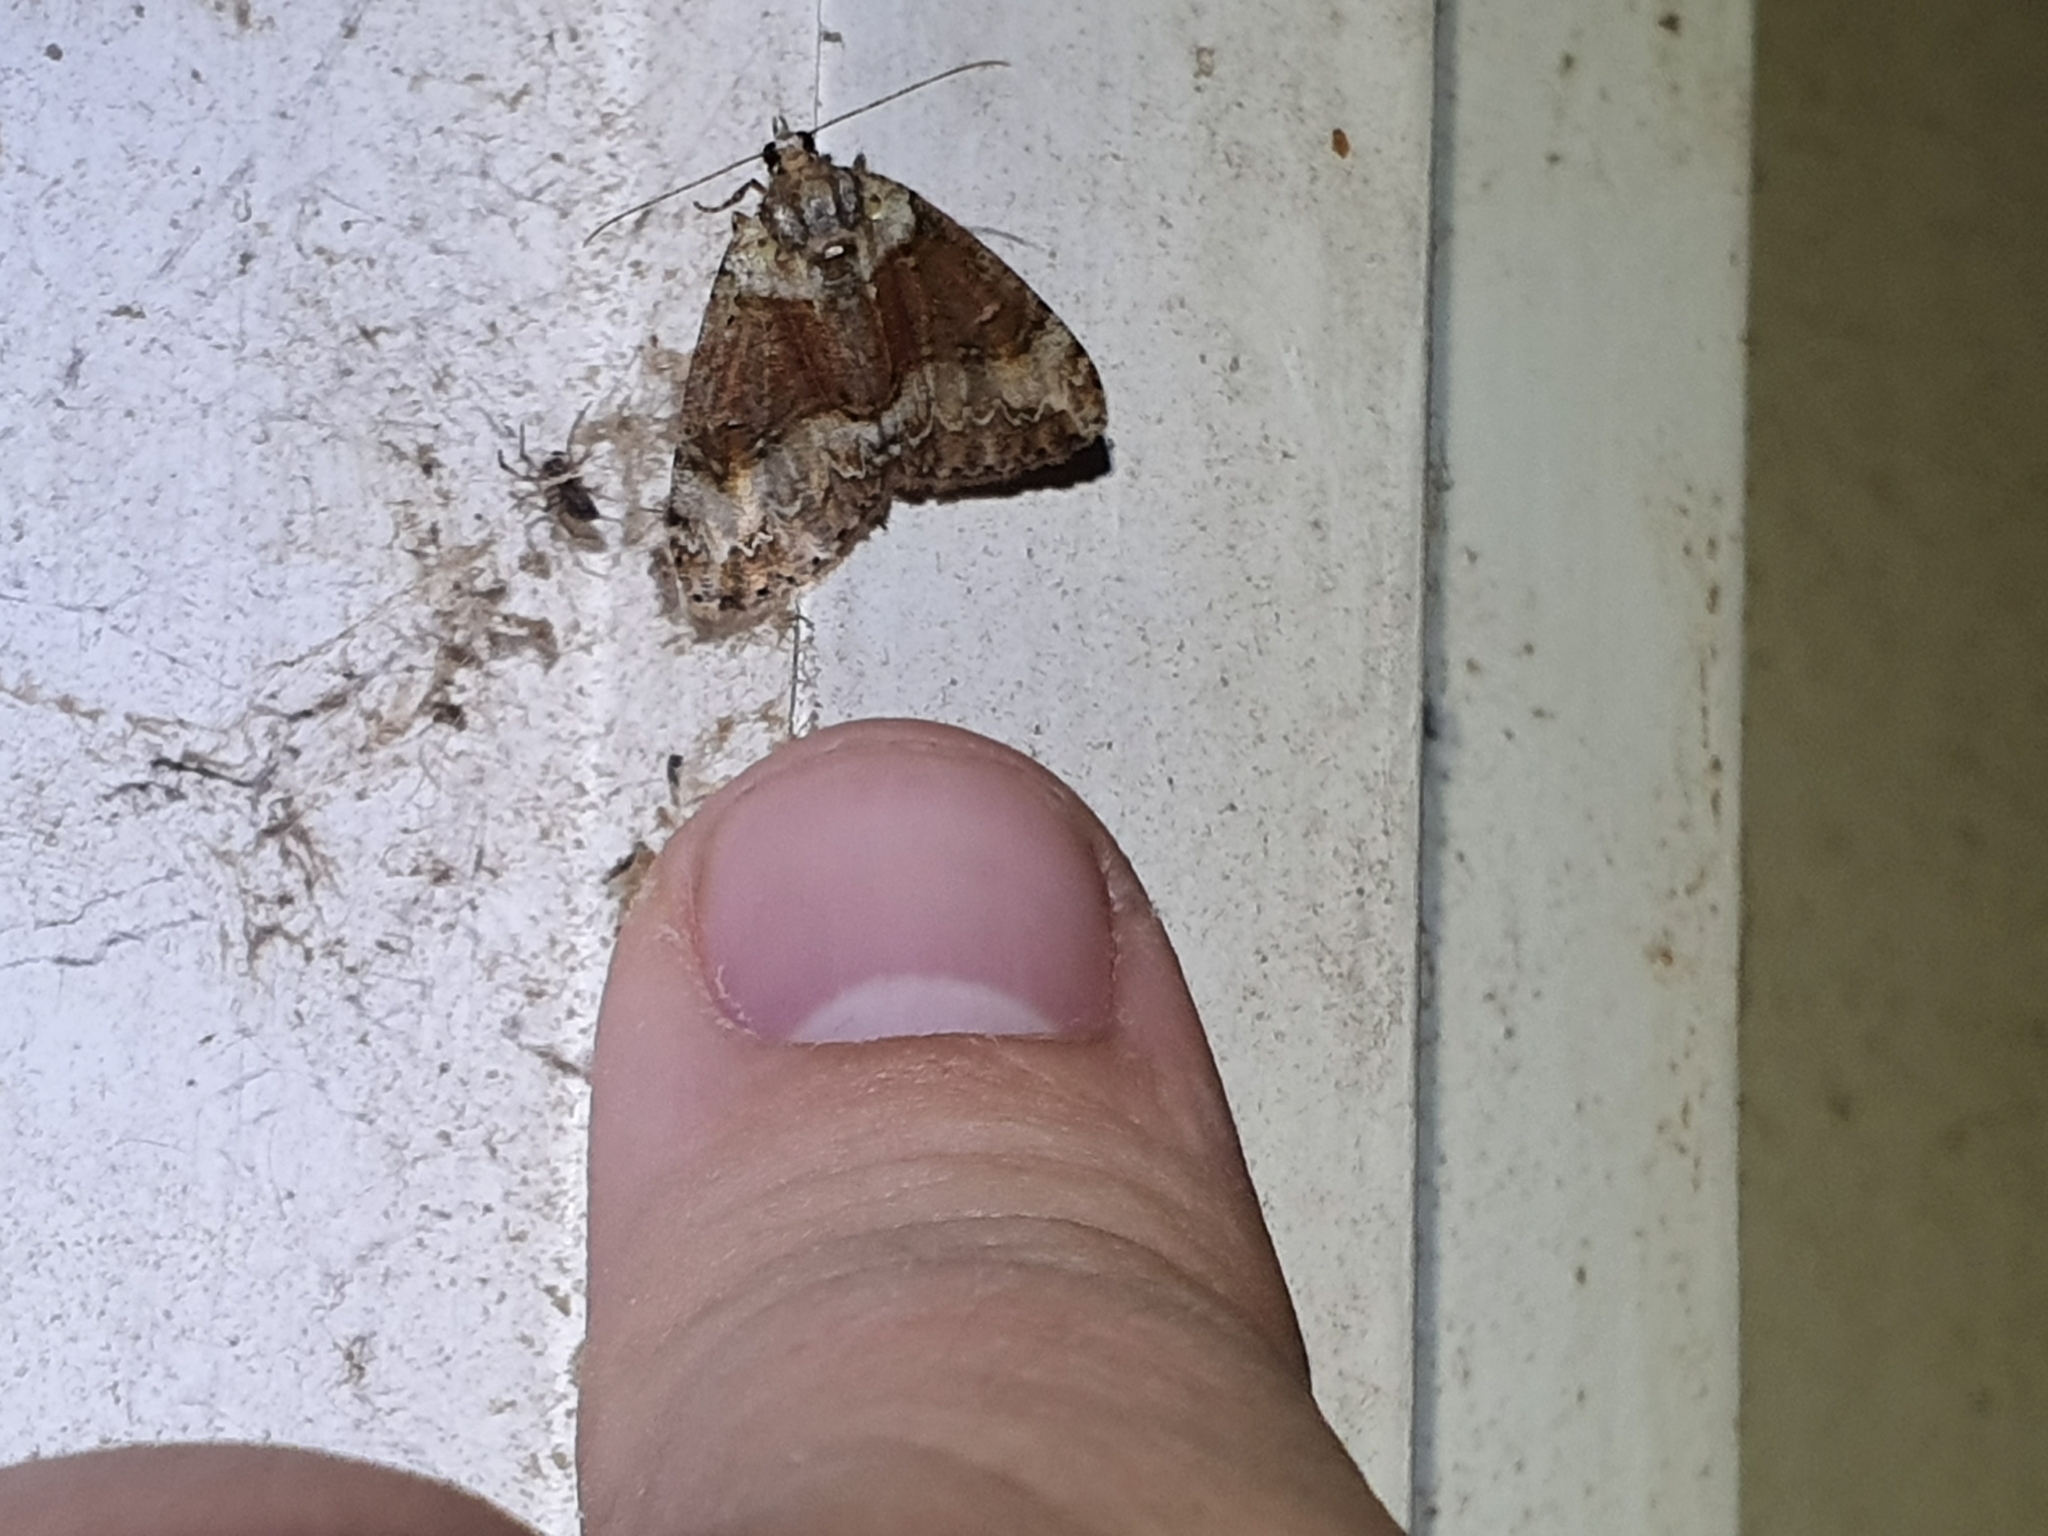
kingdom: Animalia
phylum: Arthropoda
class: Insecta
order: Lepidoptera
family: Geometridae
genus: Pseudocoremia
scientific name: Pseudocoremia suavis
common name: Common forest looper
